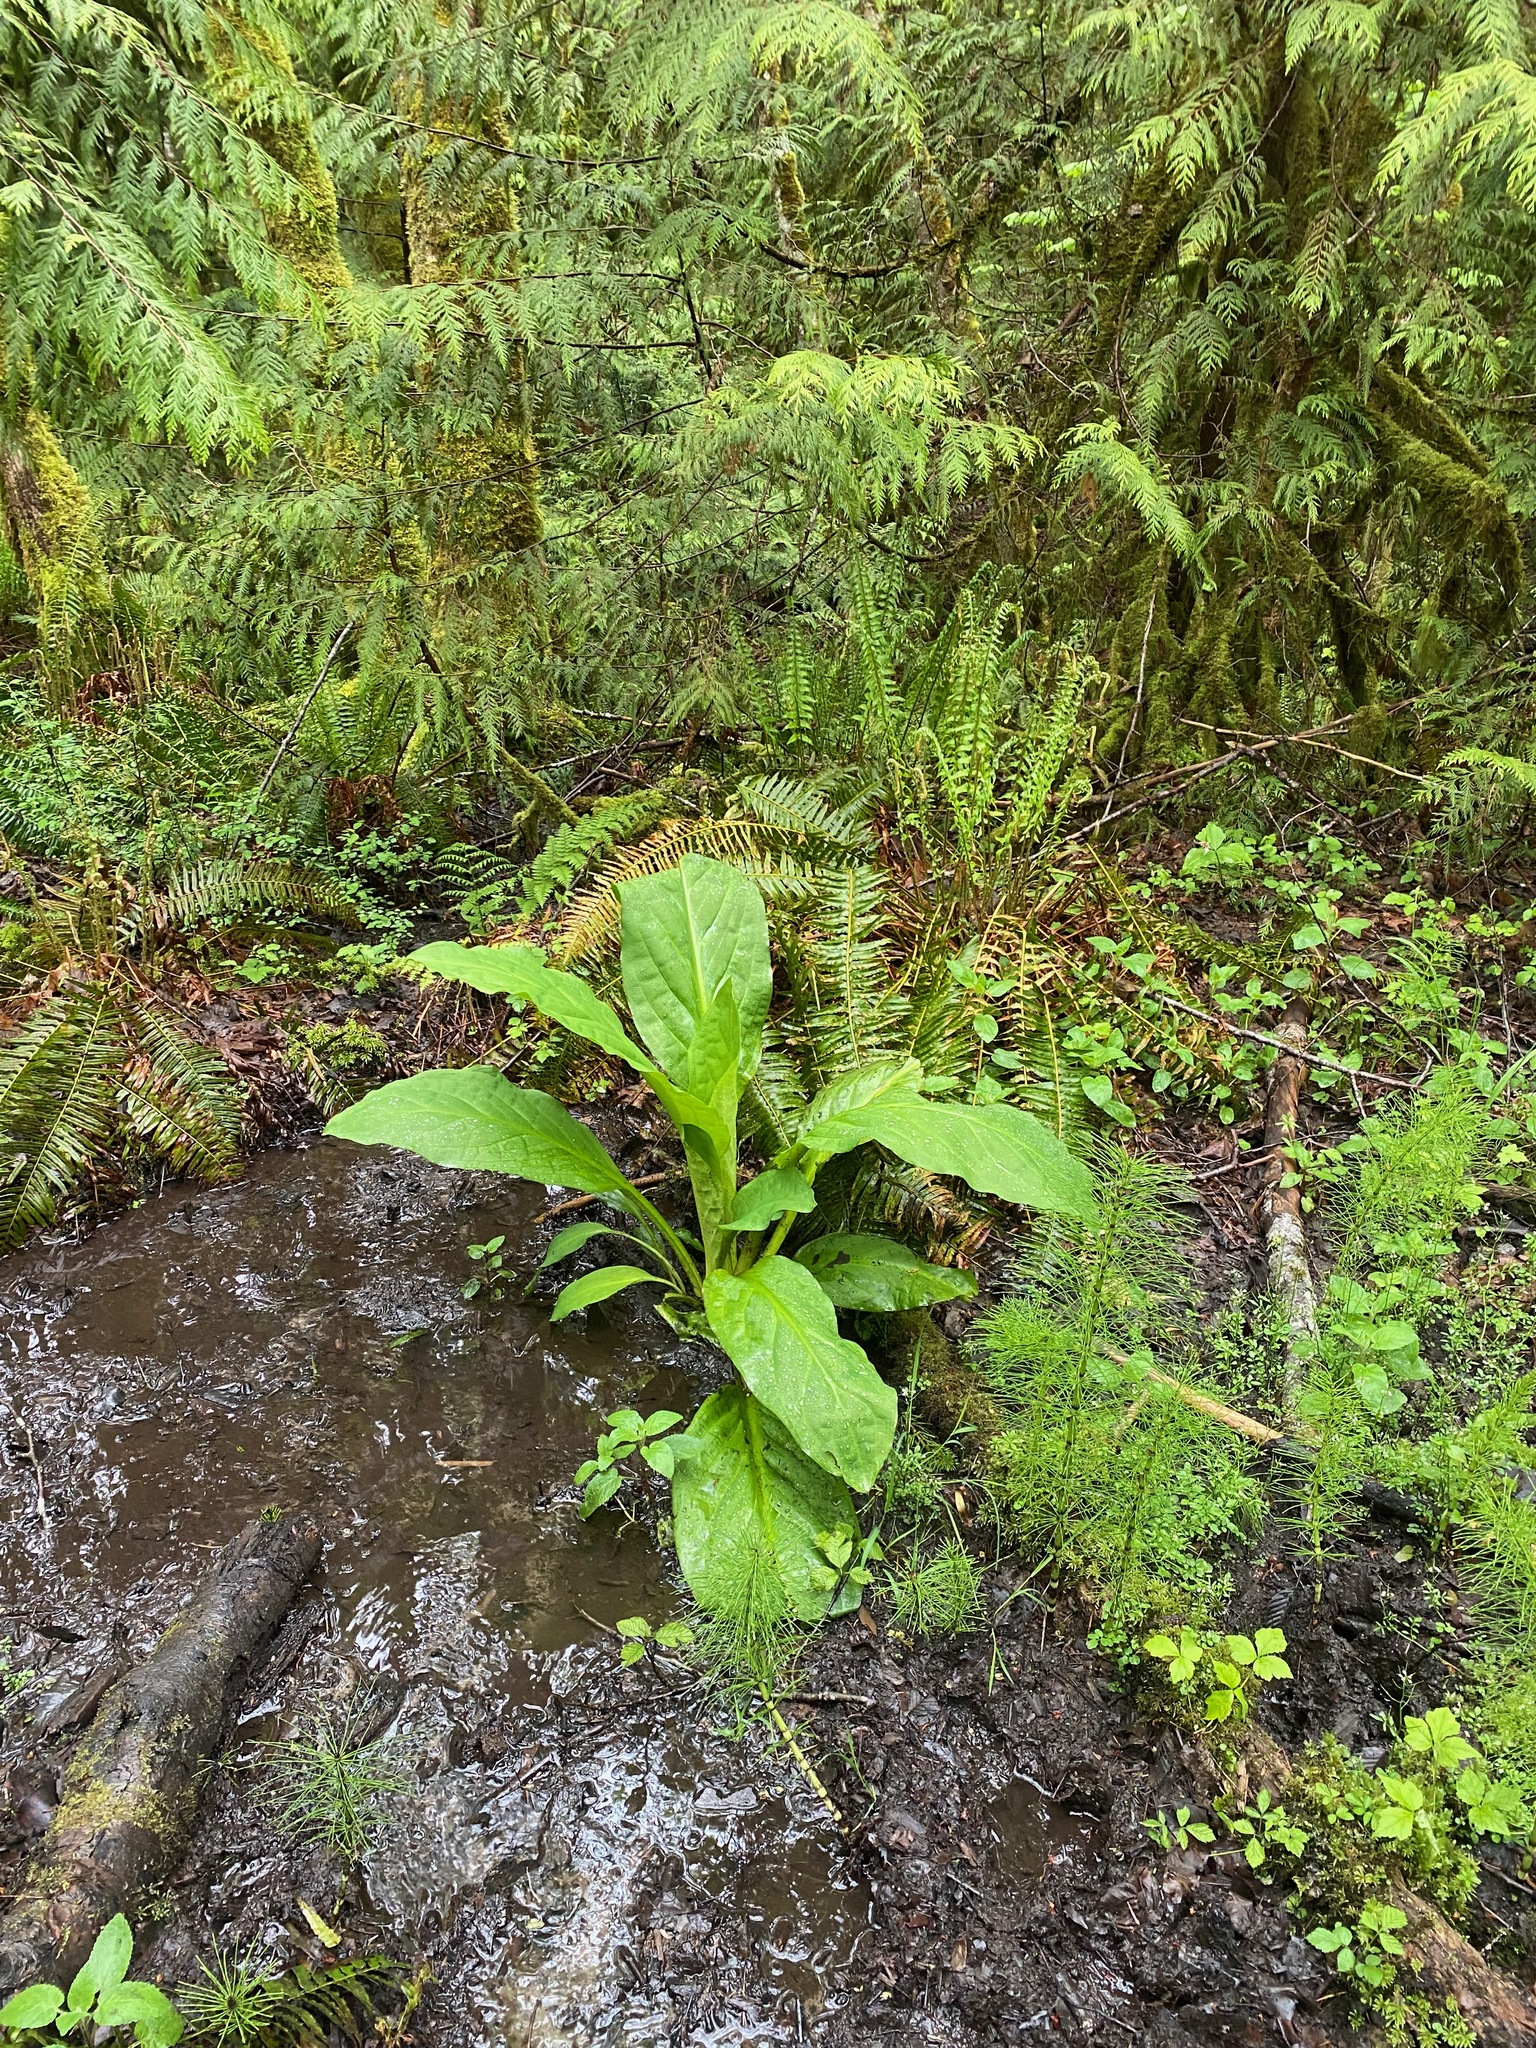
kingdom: Plantae
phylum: Tracheophyta
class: Liliopsida
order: Alismatales
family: Araceae
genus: Lysichiton
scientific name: Lysichiton americanus
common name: American skunk cabbage
